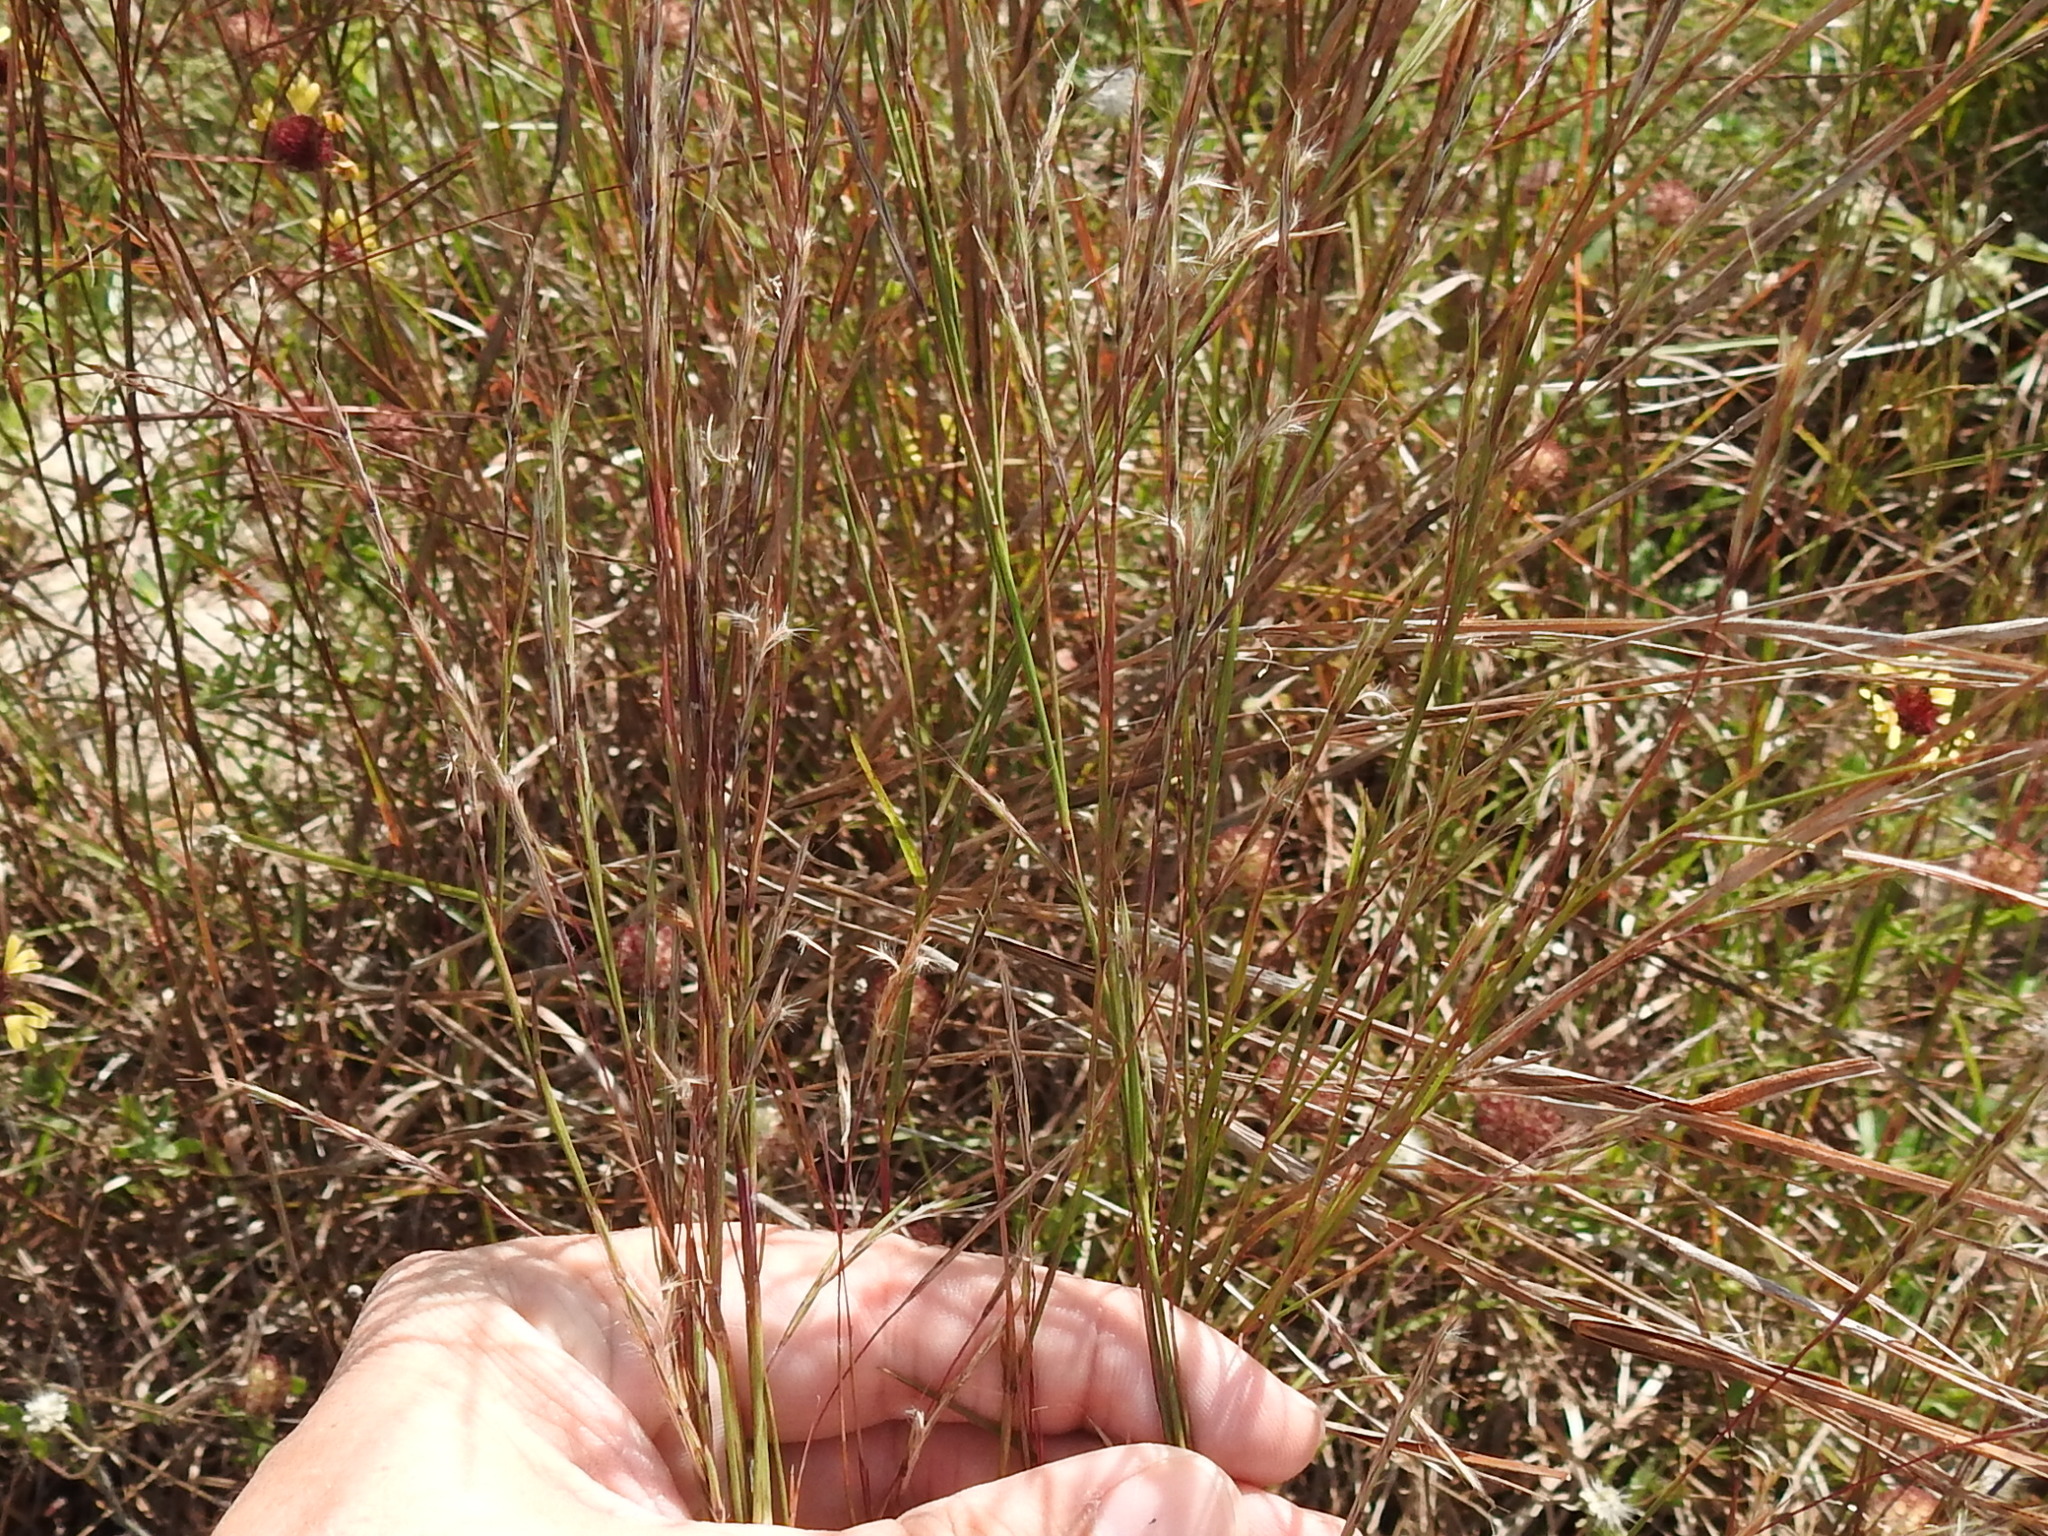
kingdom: Plantae
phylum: Tracheophyta
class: Liliopsida
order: Poales
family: Poaceae
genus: Schizachyrium
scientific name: Schizachyrium scoparium
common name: Little bluestem
